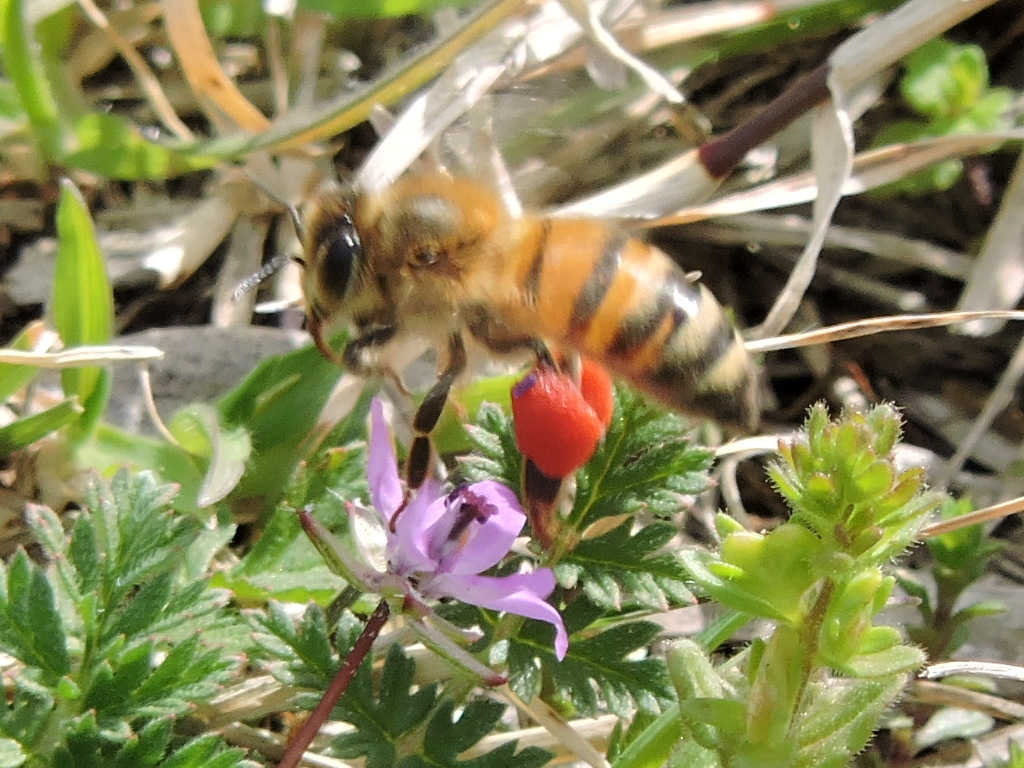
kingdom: Animalia
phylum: Arthropoda
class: Insecta
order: Hymenoptera
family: Apidae
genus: Apis
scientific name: Apis mellifera
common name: Honey bee
